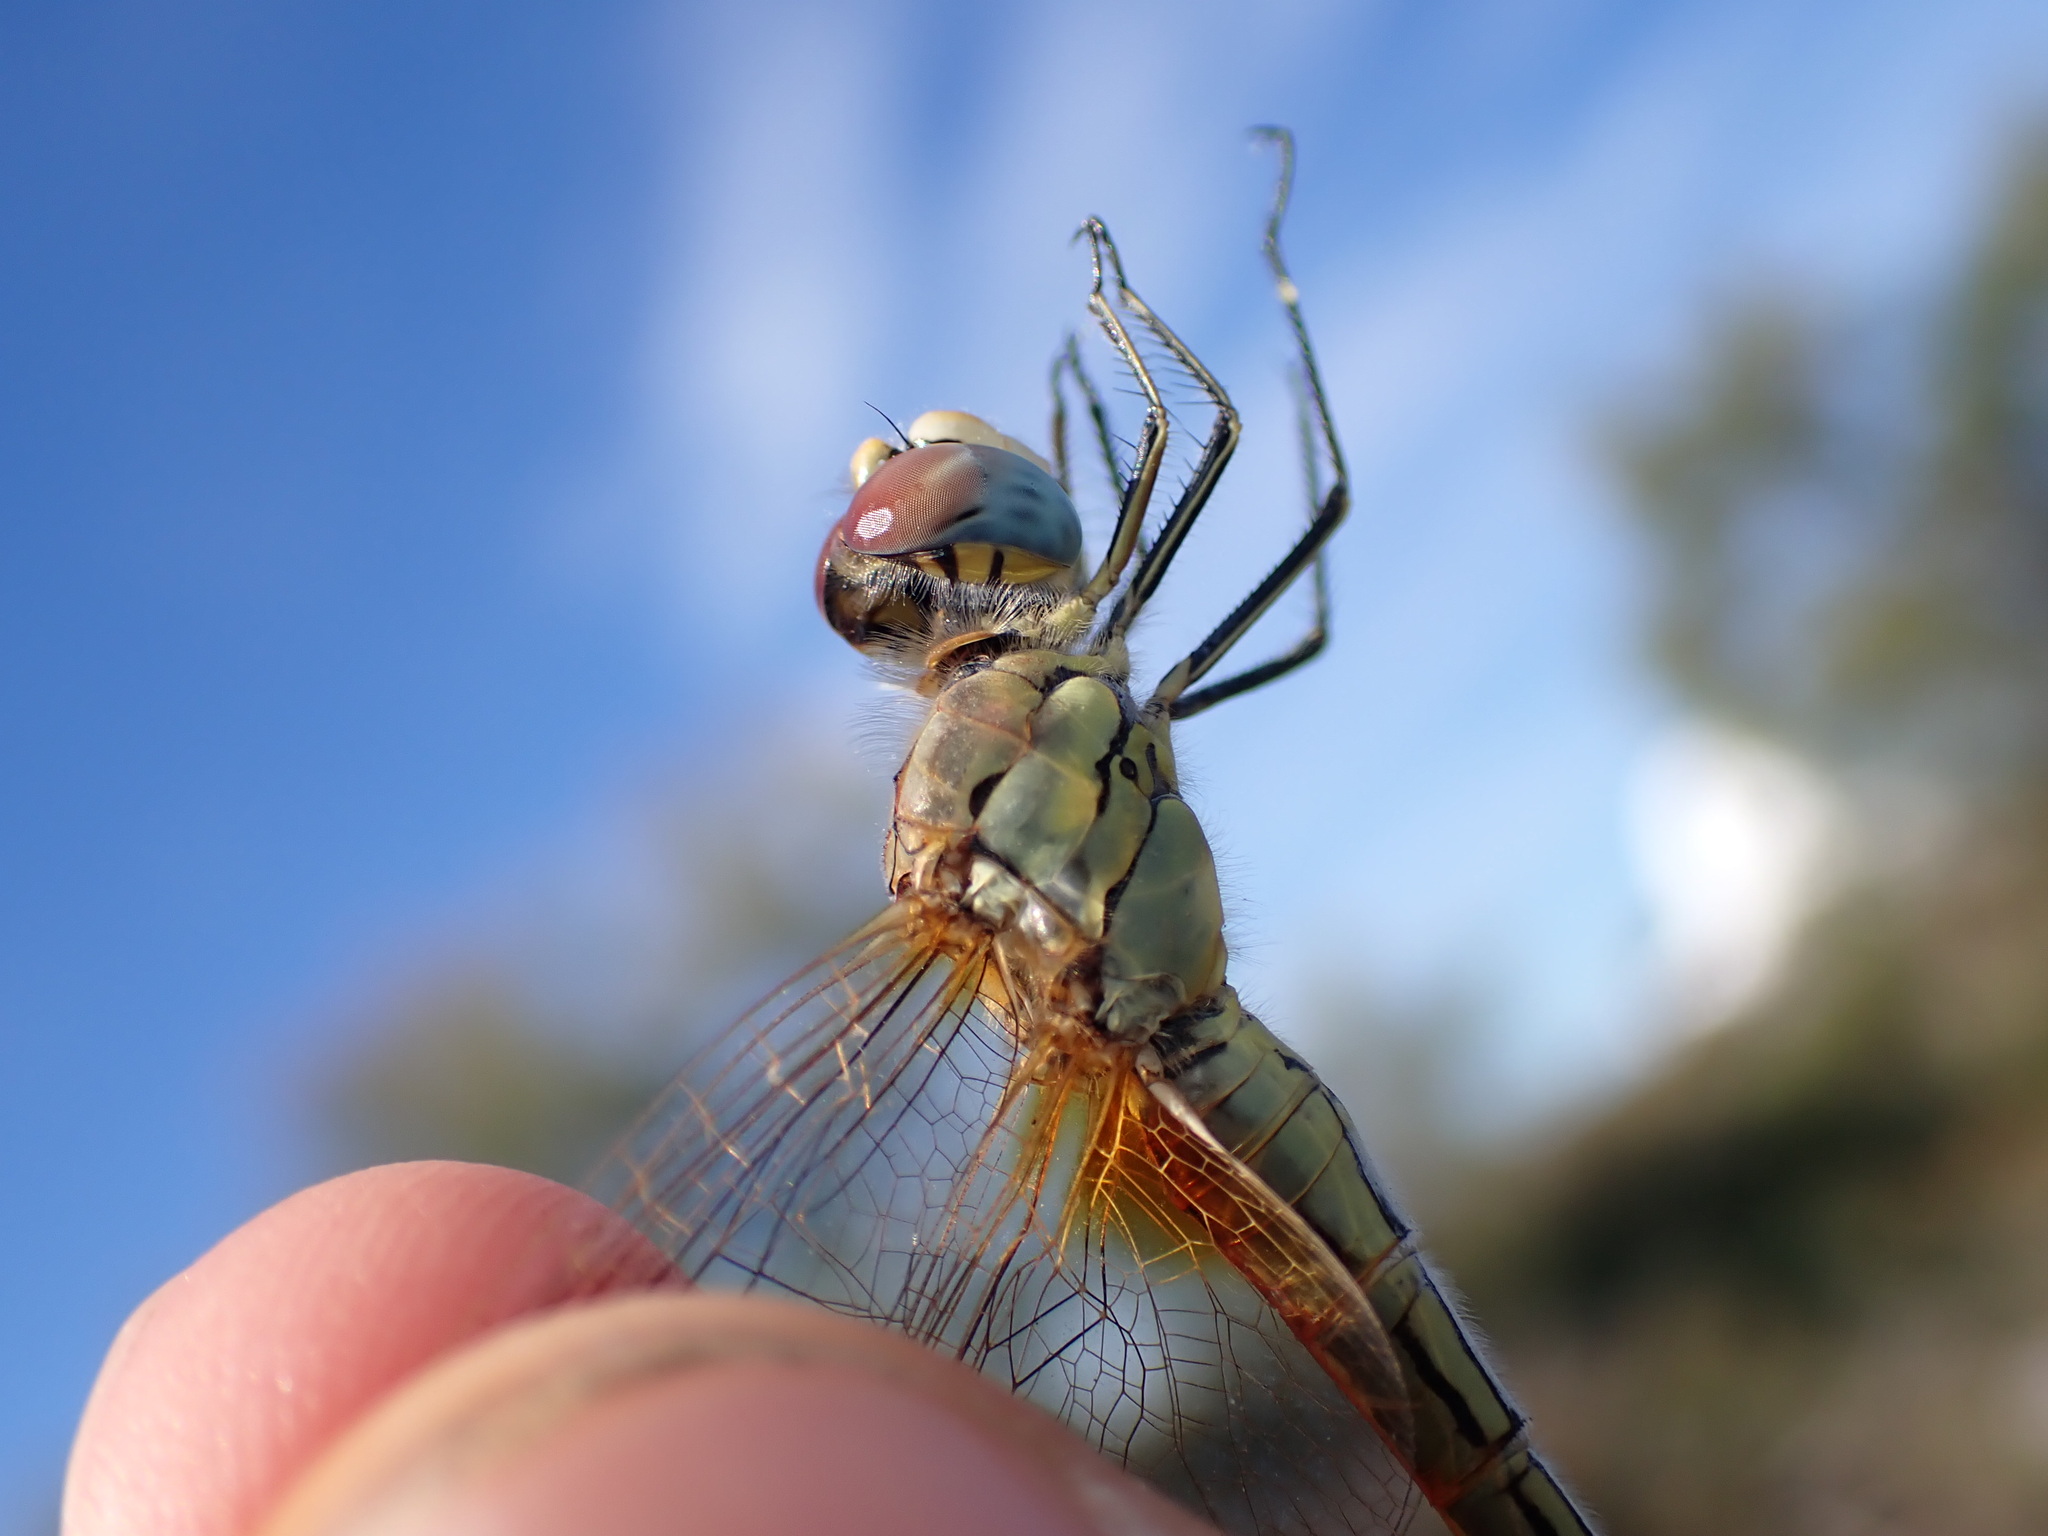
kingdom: Animalia
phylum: Arthropoda
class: Insecta
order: Odonata
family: Libellulidae
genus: Sympetrum
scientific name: Sympetrum fonscolombii
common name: Red-veined darter
